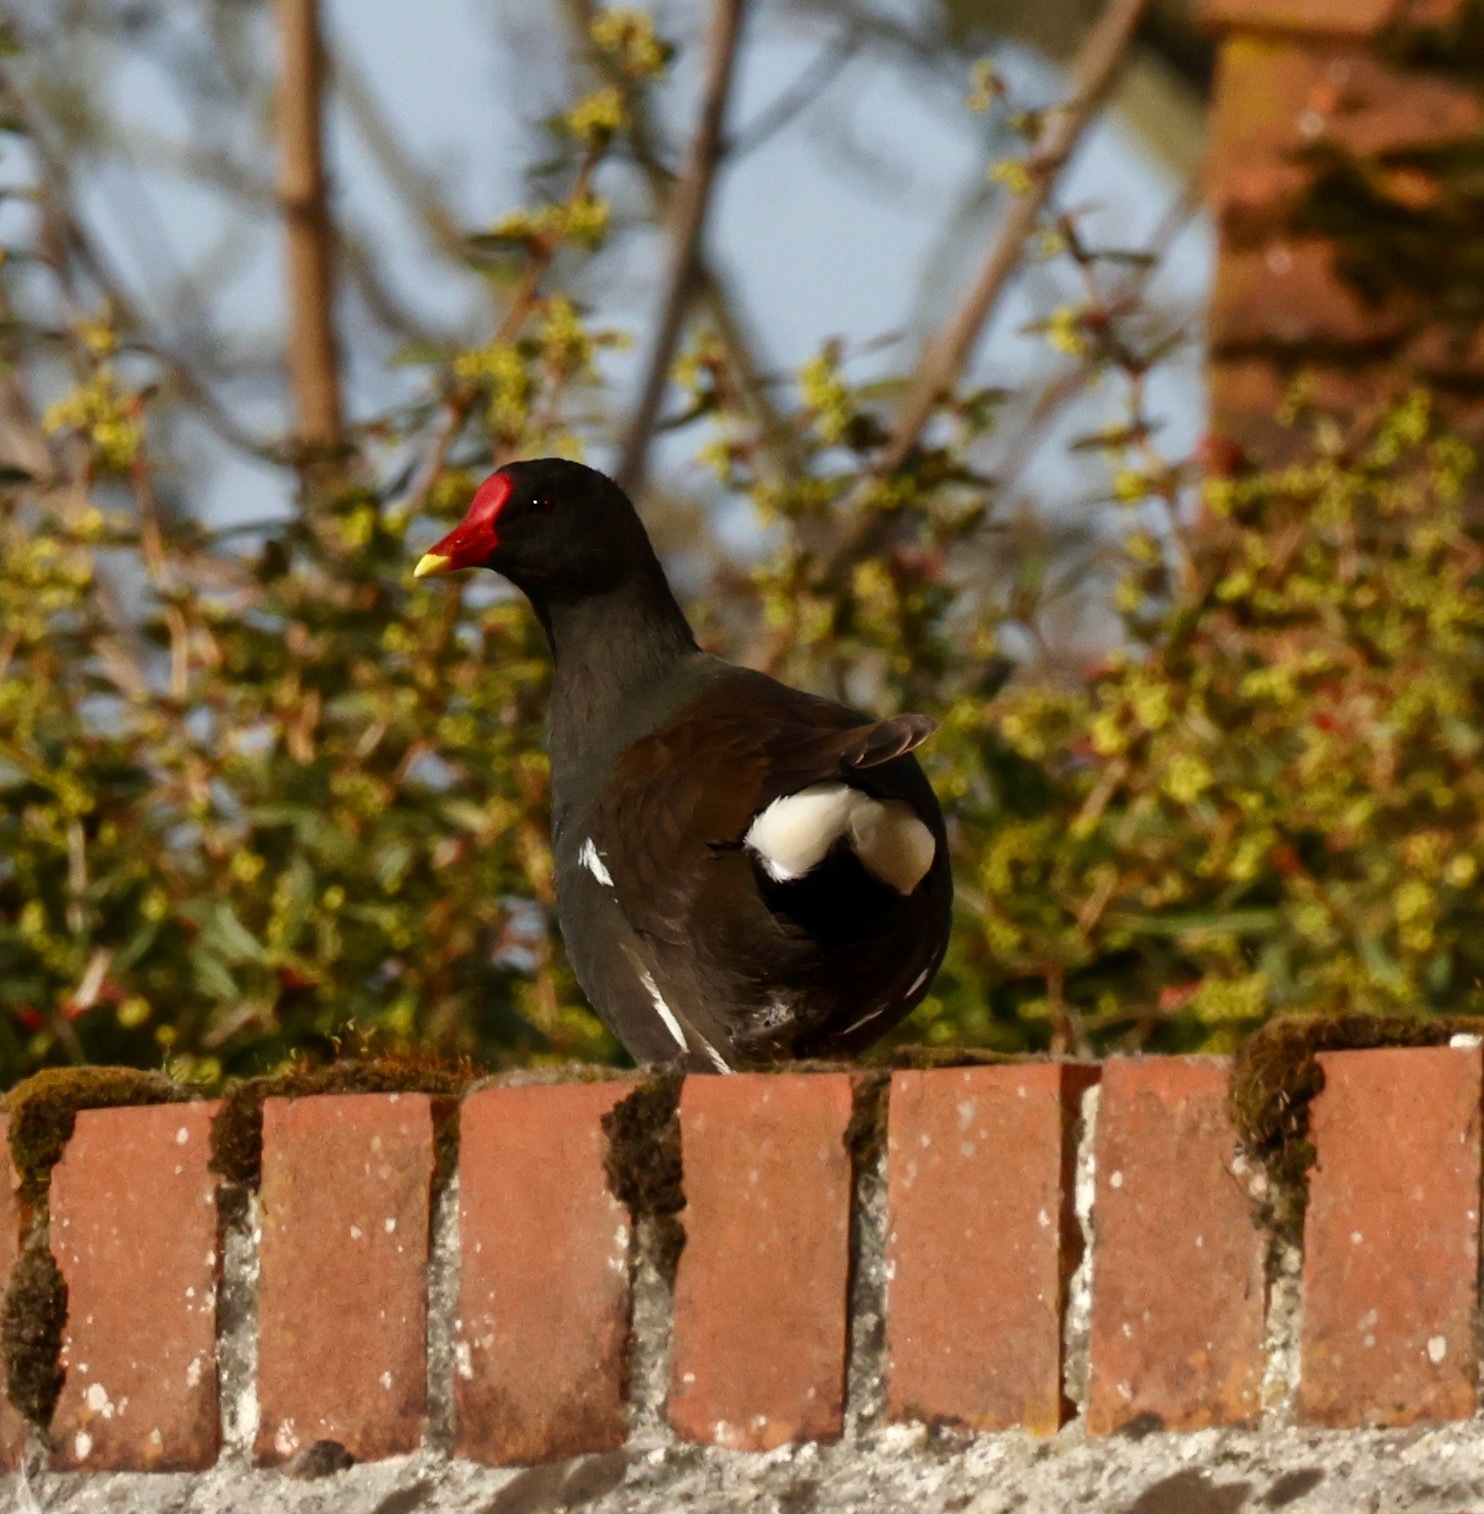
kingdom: Animalia
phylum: Chordata
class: Aves
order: Gruiformes
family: Rallidae
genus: Gallinula
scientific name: Gallinula chloropus
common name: Common moorhen
